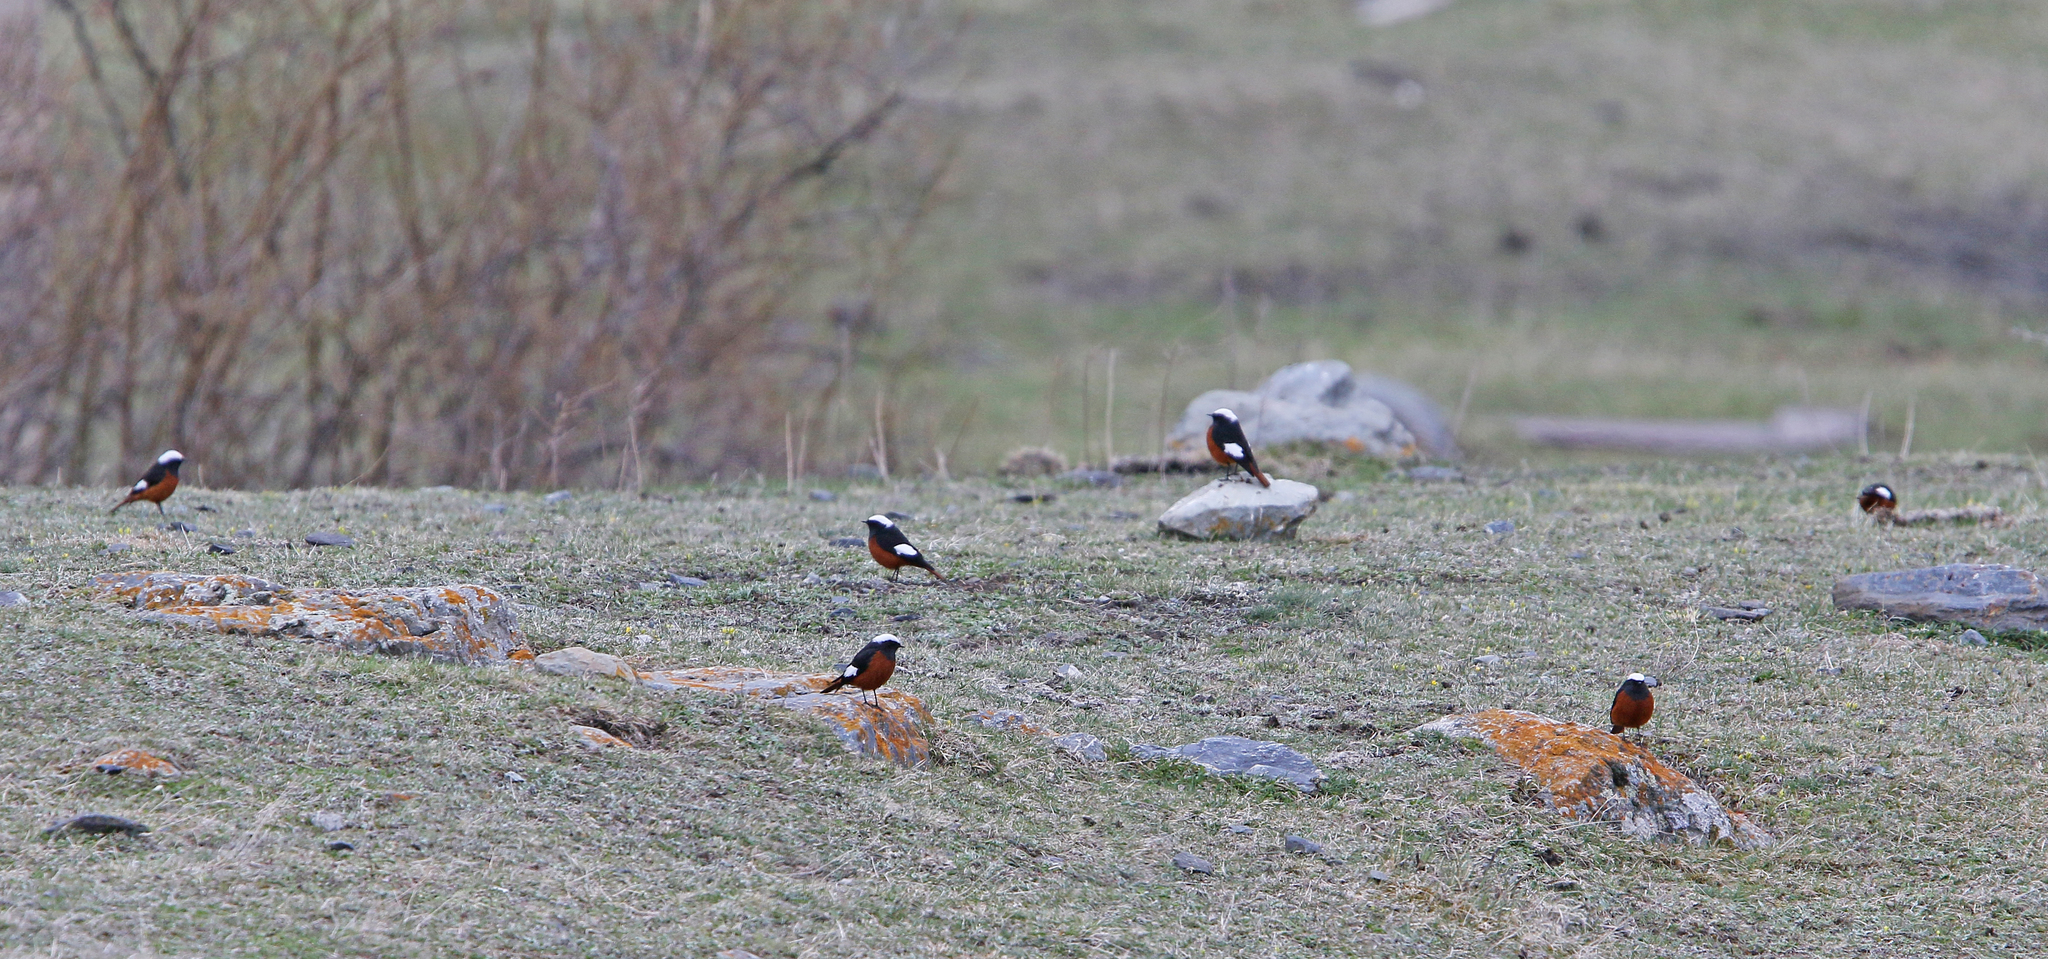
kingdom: Animalia
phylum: Chordata
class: Aves
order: Passeriformes
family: Muscicapidae
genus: Phoenicurus
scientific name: Phoenicurus erythrogastrus
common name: Güldenstädt's redstart
